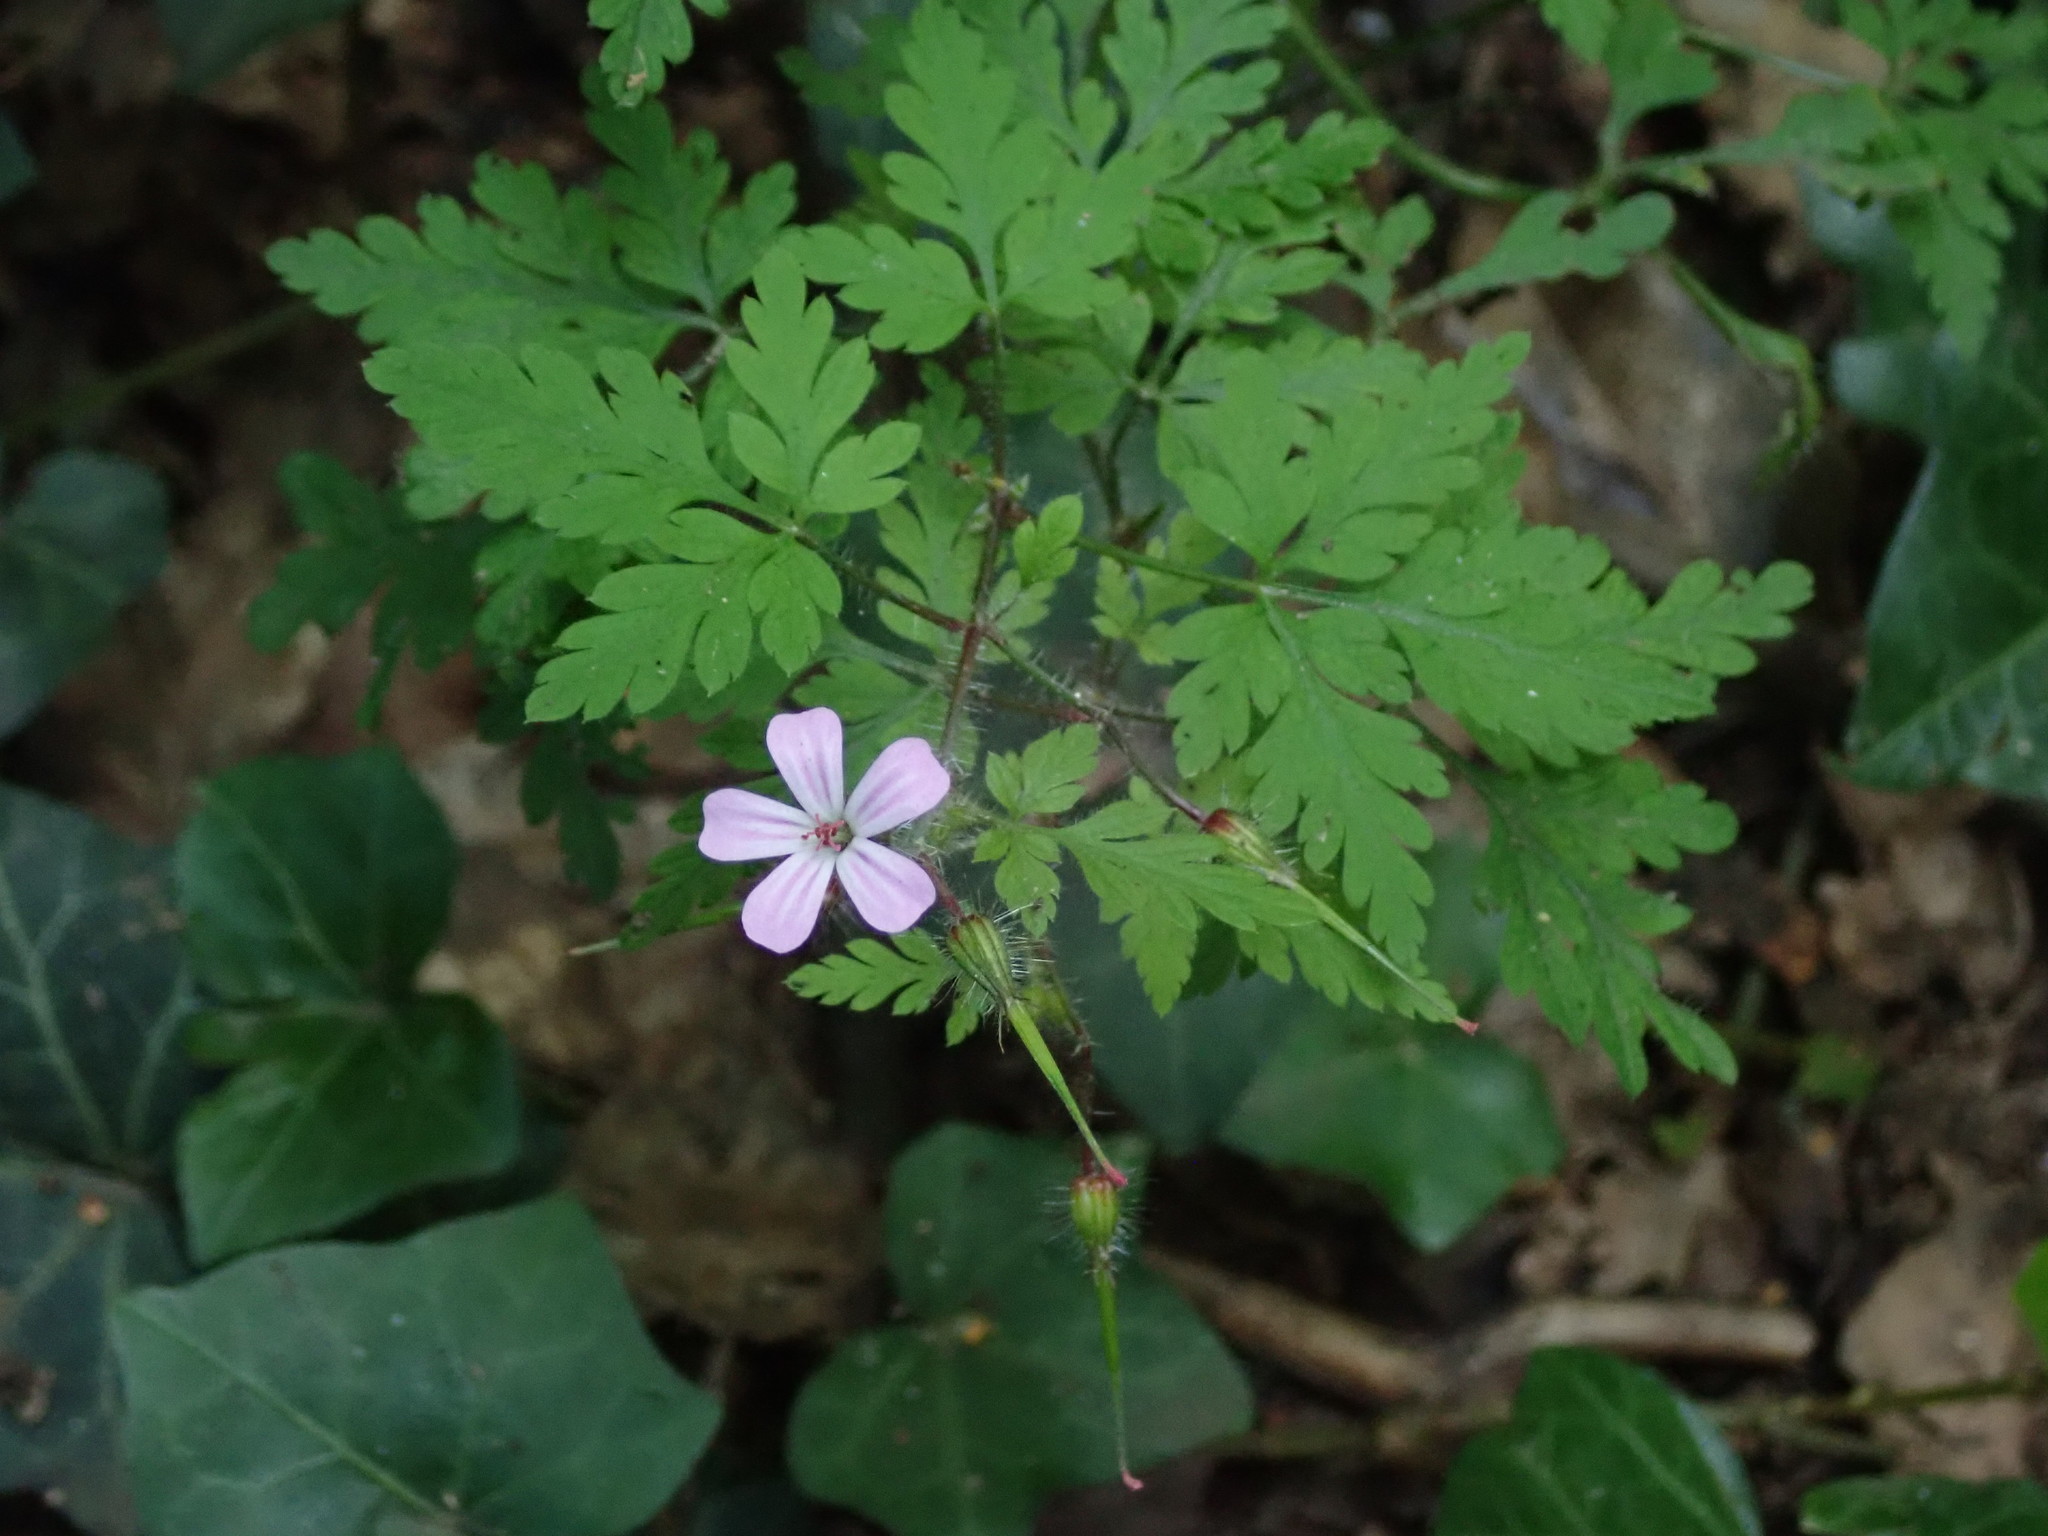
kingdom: Plantae
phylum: Tracheophyta
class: Magnoliopsida
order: Geraniales
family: Geraniaceae
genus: Geranium
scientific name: Geranium robertianum
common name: Herb-robert
